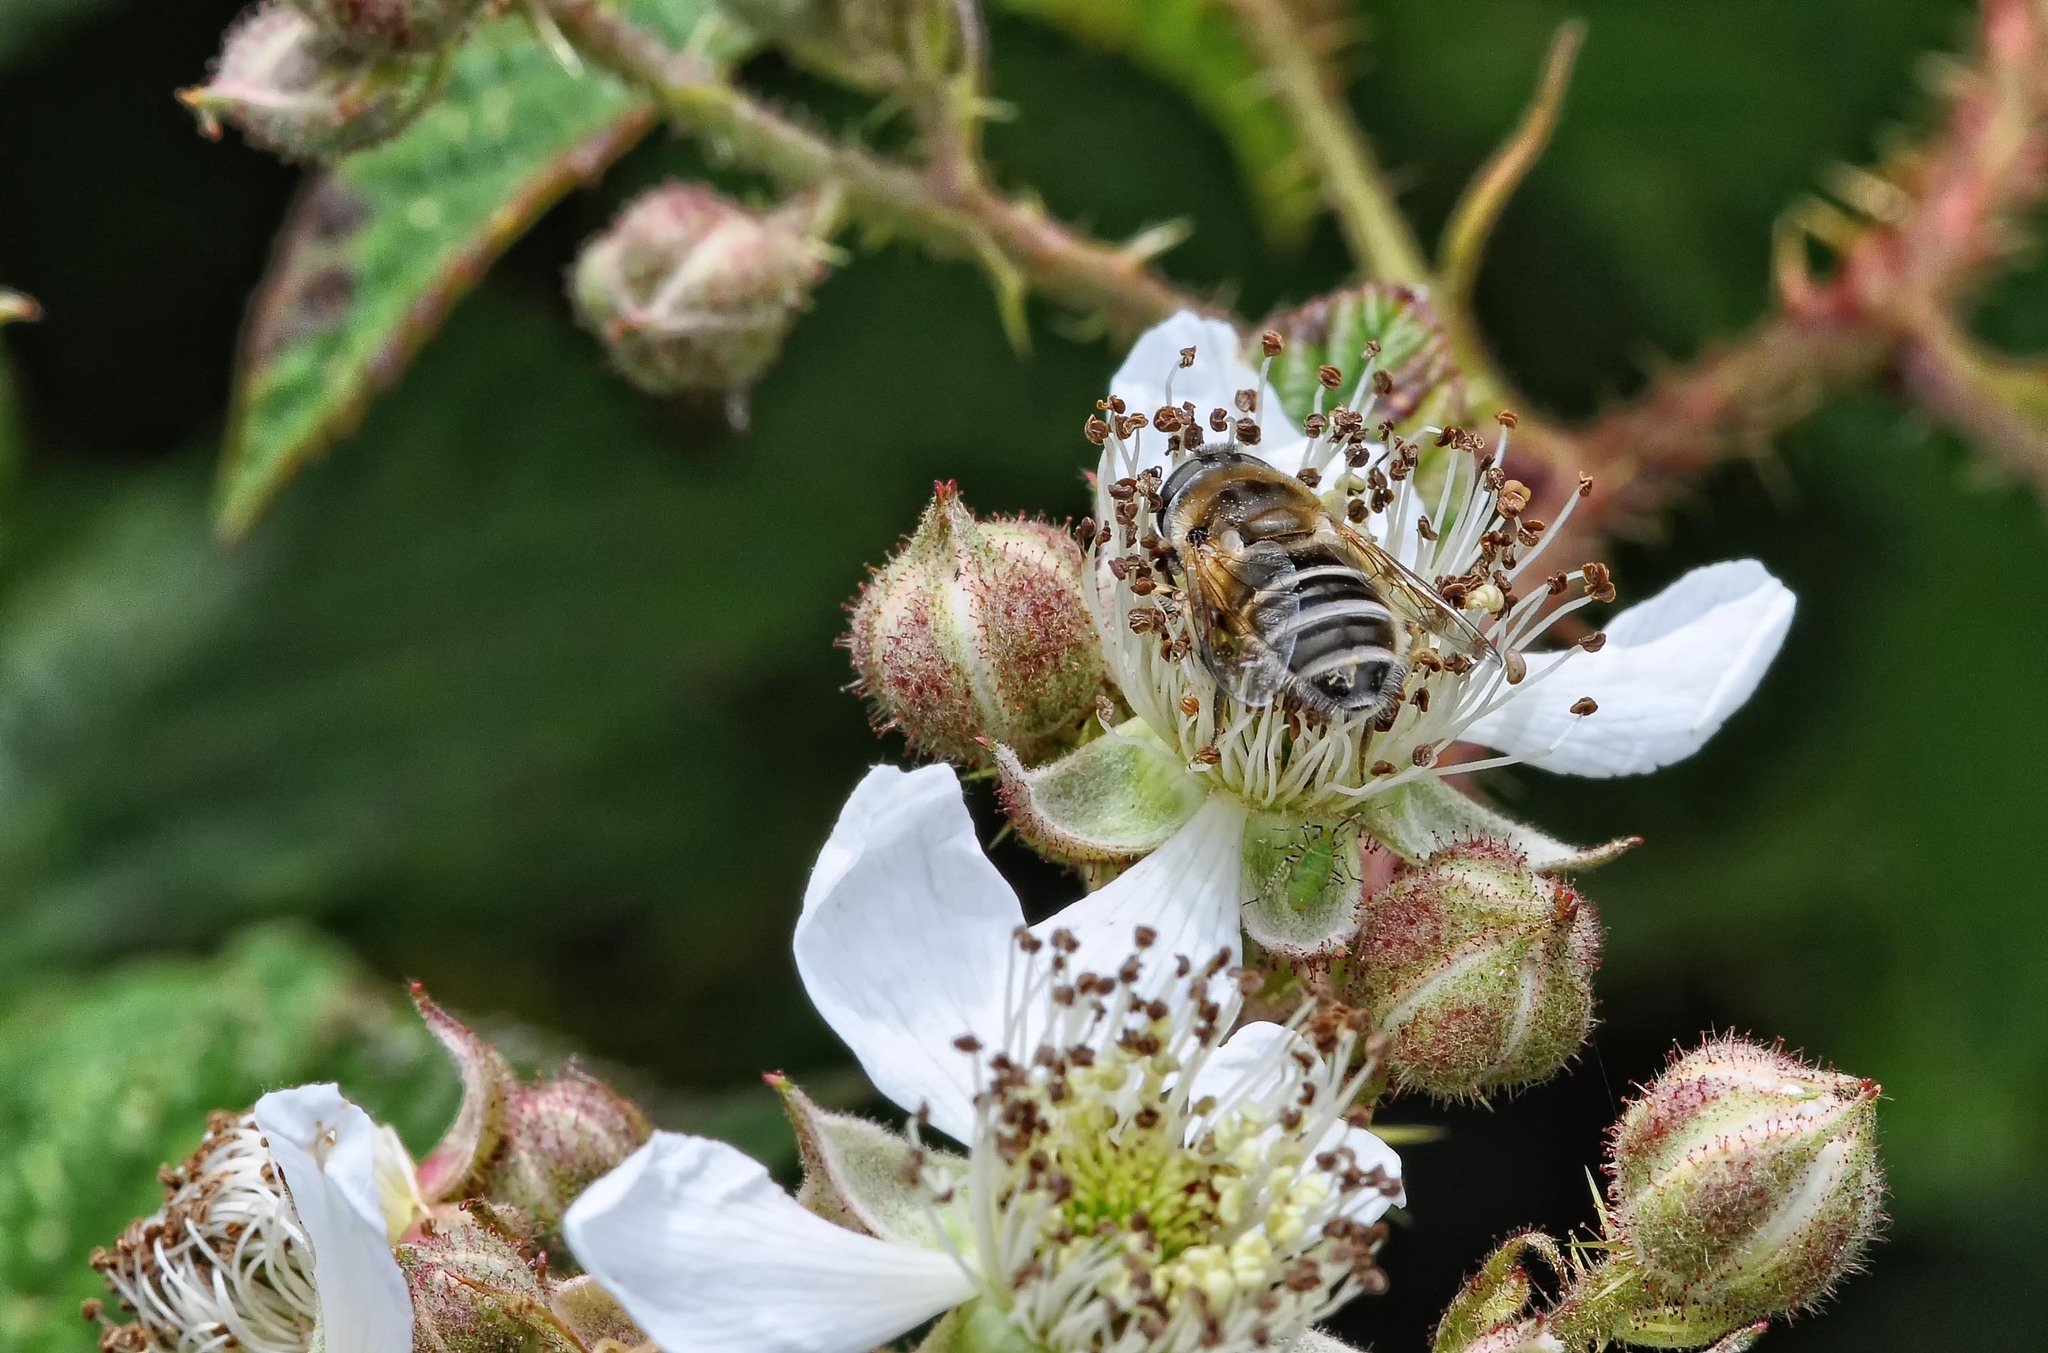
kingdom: Animalia
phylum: Arthropoda
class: Insecta
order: Diptera
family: Syrphidae
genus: Eoseristalis
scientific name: Eoseristalis
